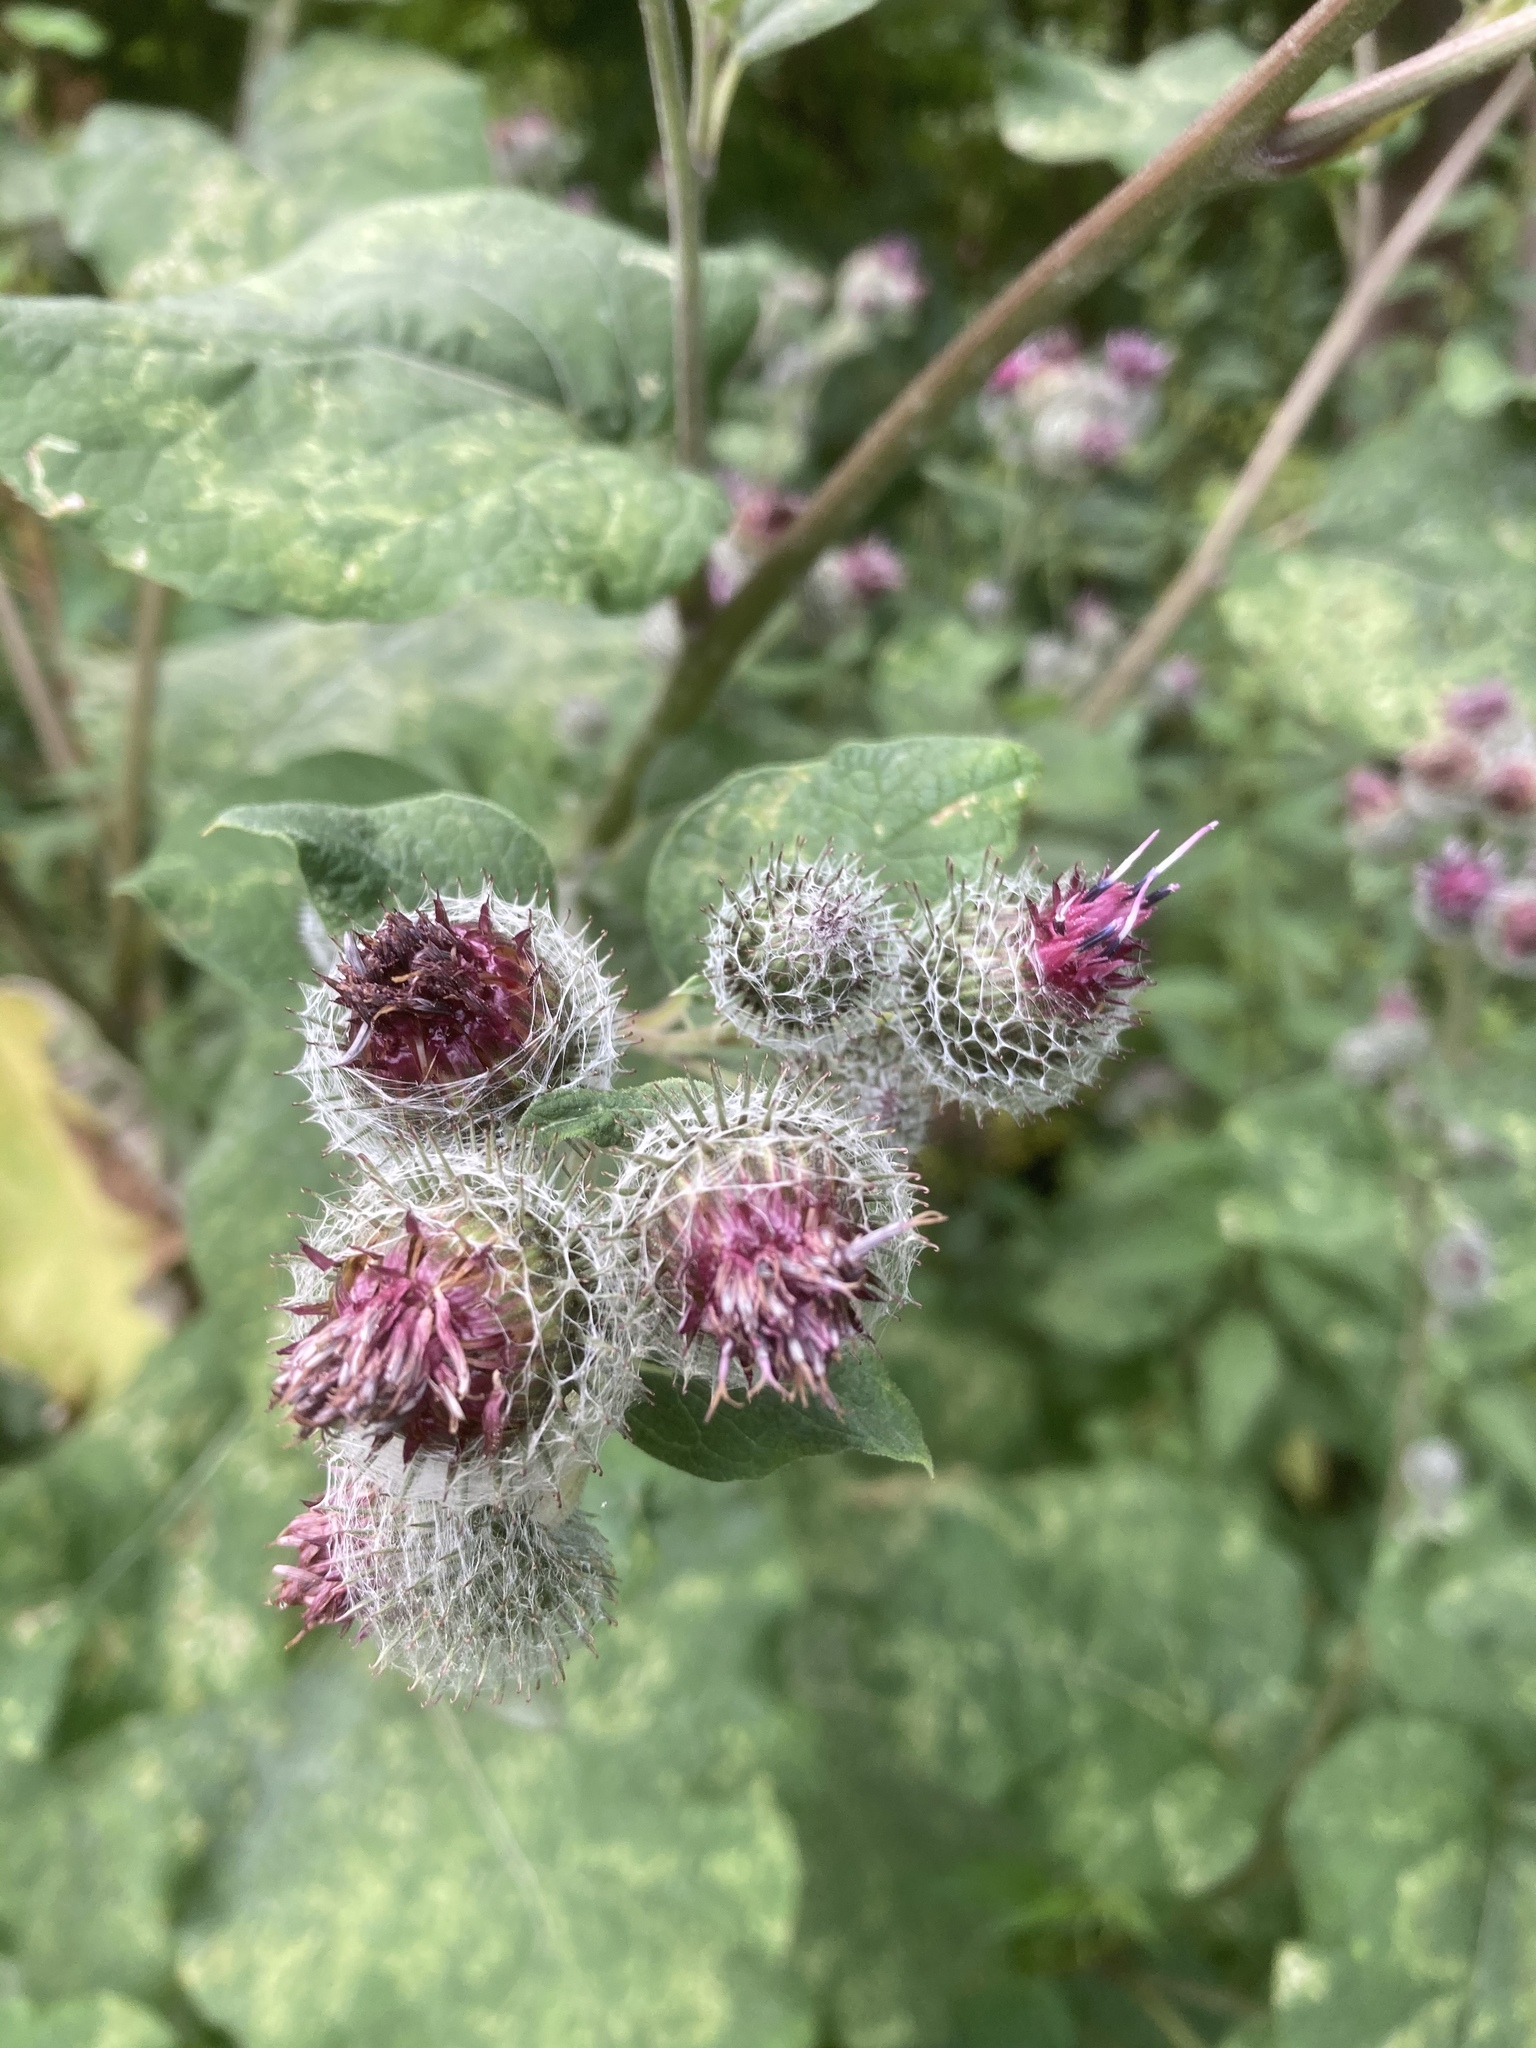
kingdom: Plantae
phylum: Tracheophyta
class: Magnoliopsida
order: Asterales
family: Asteraceae
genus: Arctium
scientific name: Arctium tomentosum
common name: Woolly burdock
